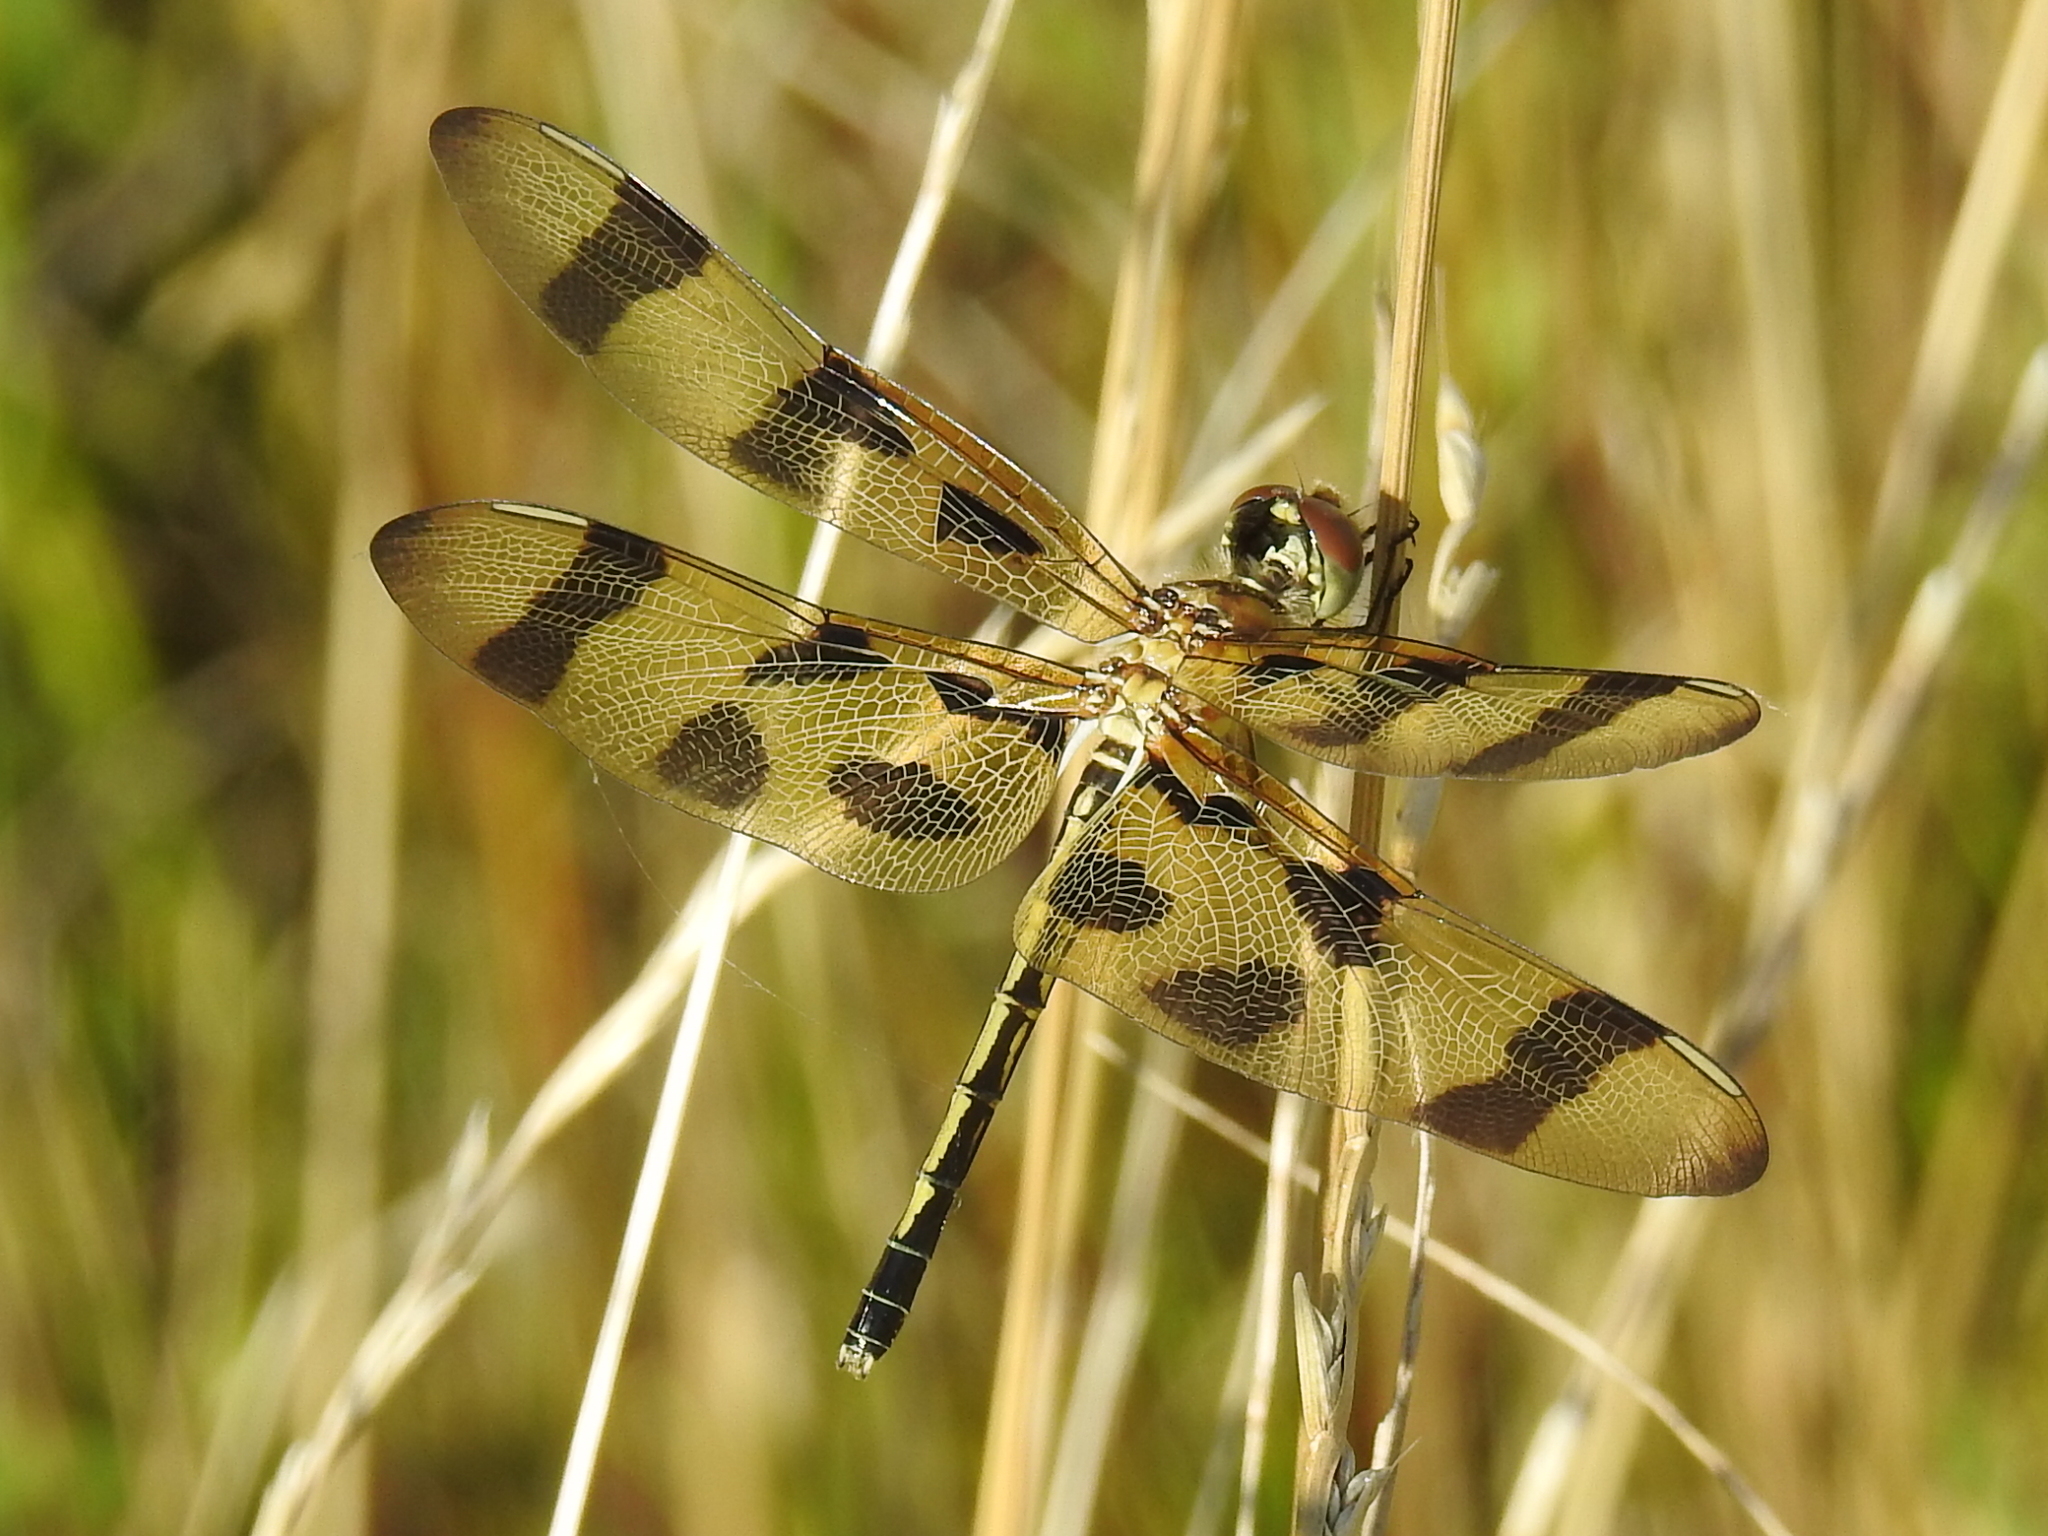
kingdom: Animalia
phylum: Arthropoda
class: Insecta
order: Odonata
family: Libellulidae
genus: Celithemis
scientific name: Celithemis eponina
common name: Halloween pennant
